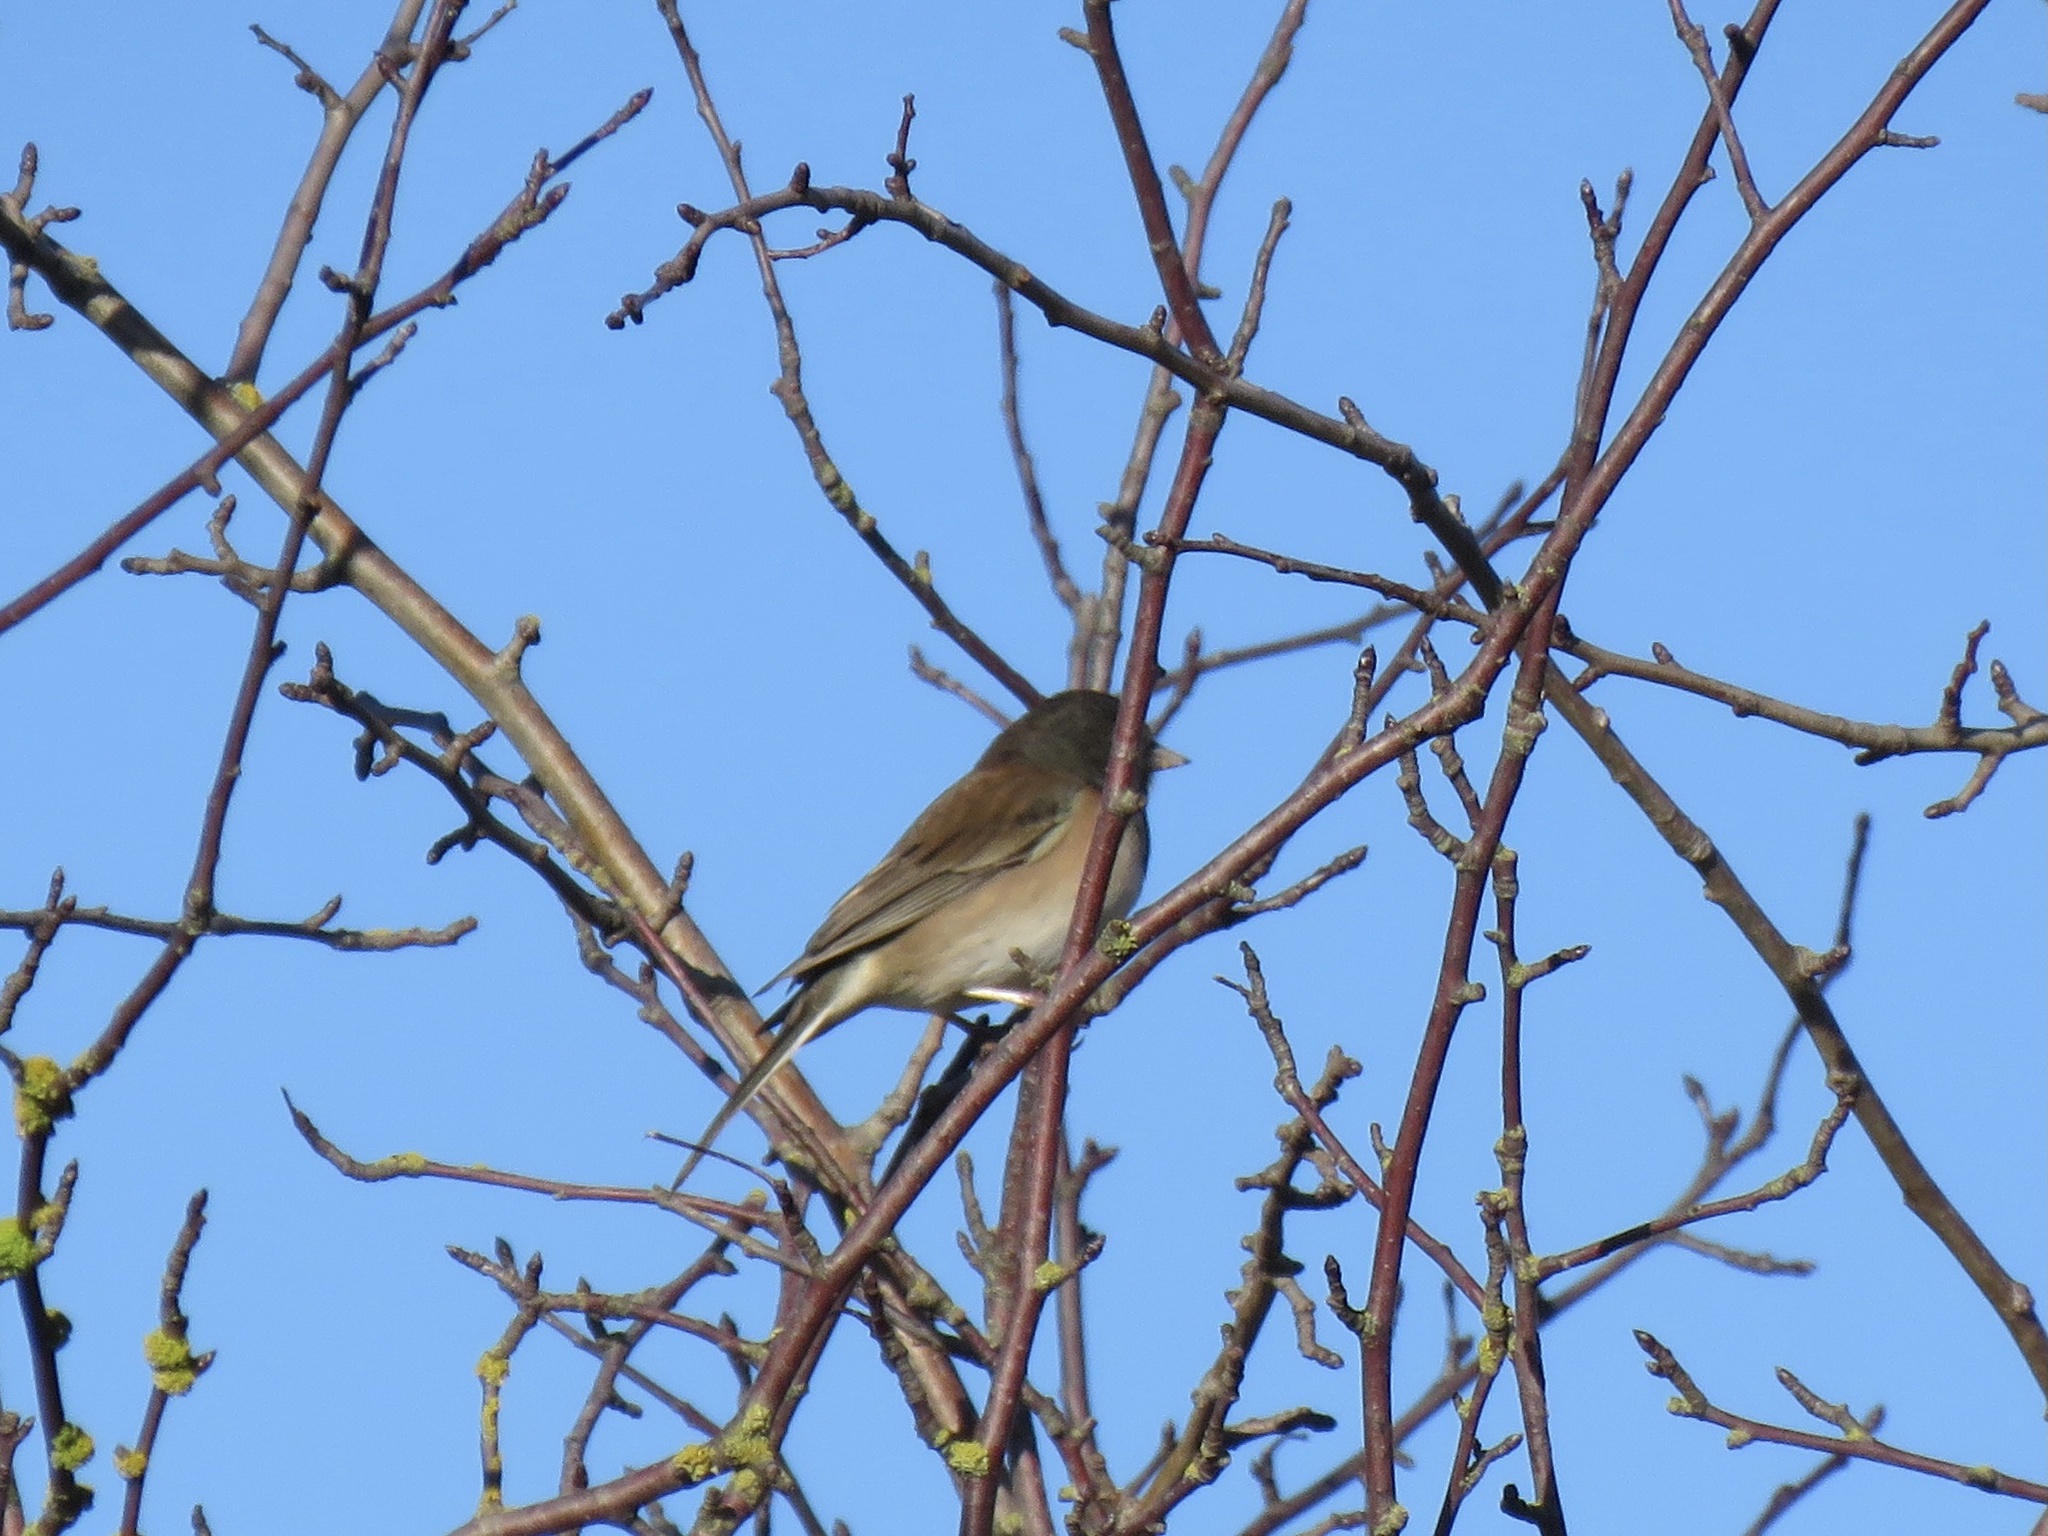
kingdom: Animalia
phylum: Chordata
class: Aves
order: Passeriformes
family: Passerellidae
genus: Junco
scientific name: Junco hyemalis
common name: Dark-eyed junco
